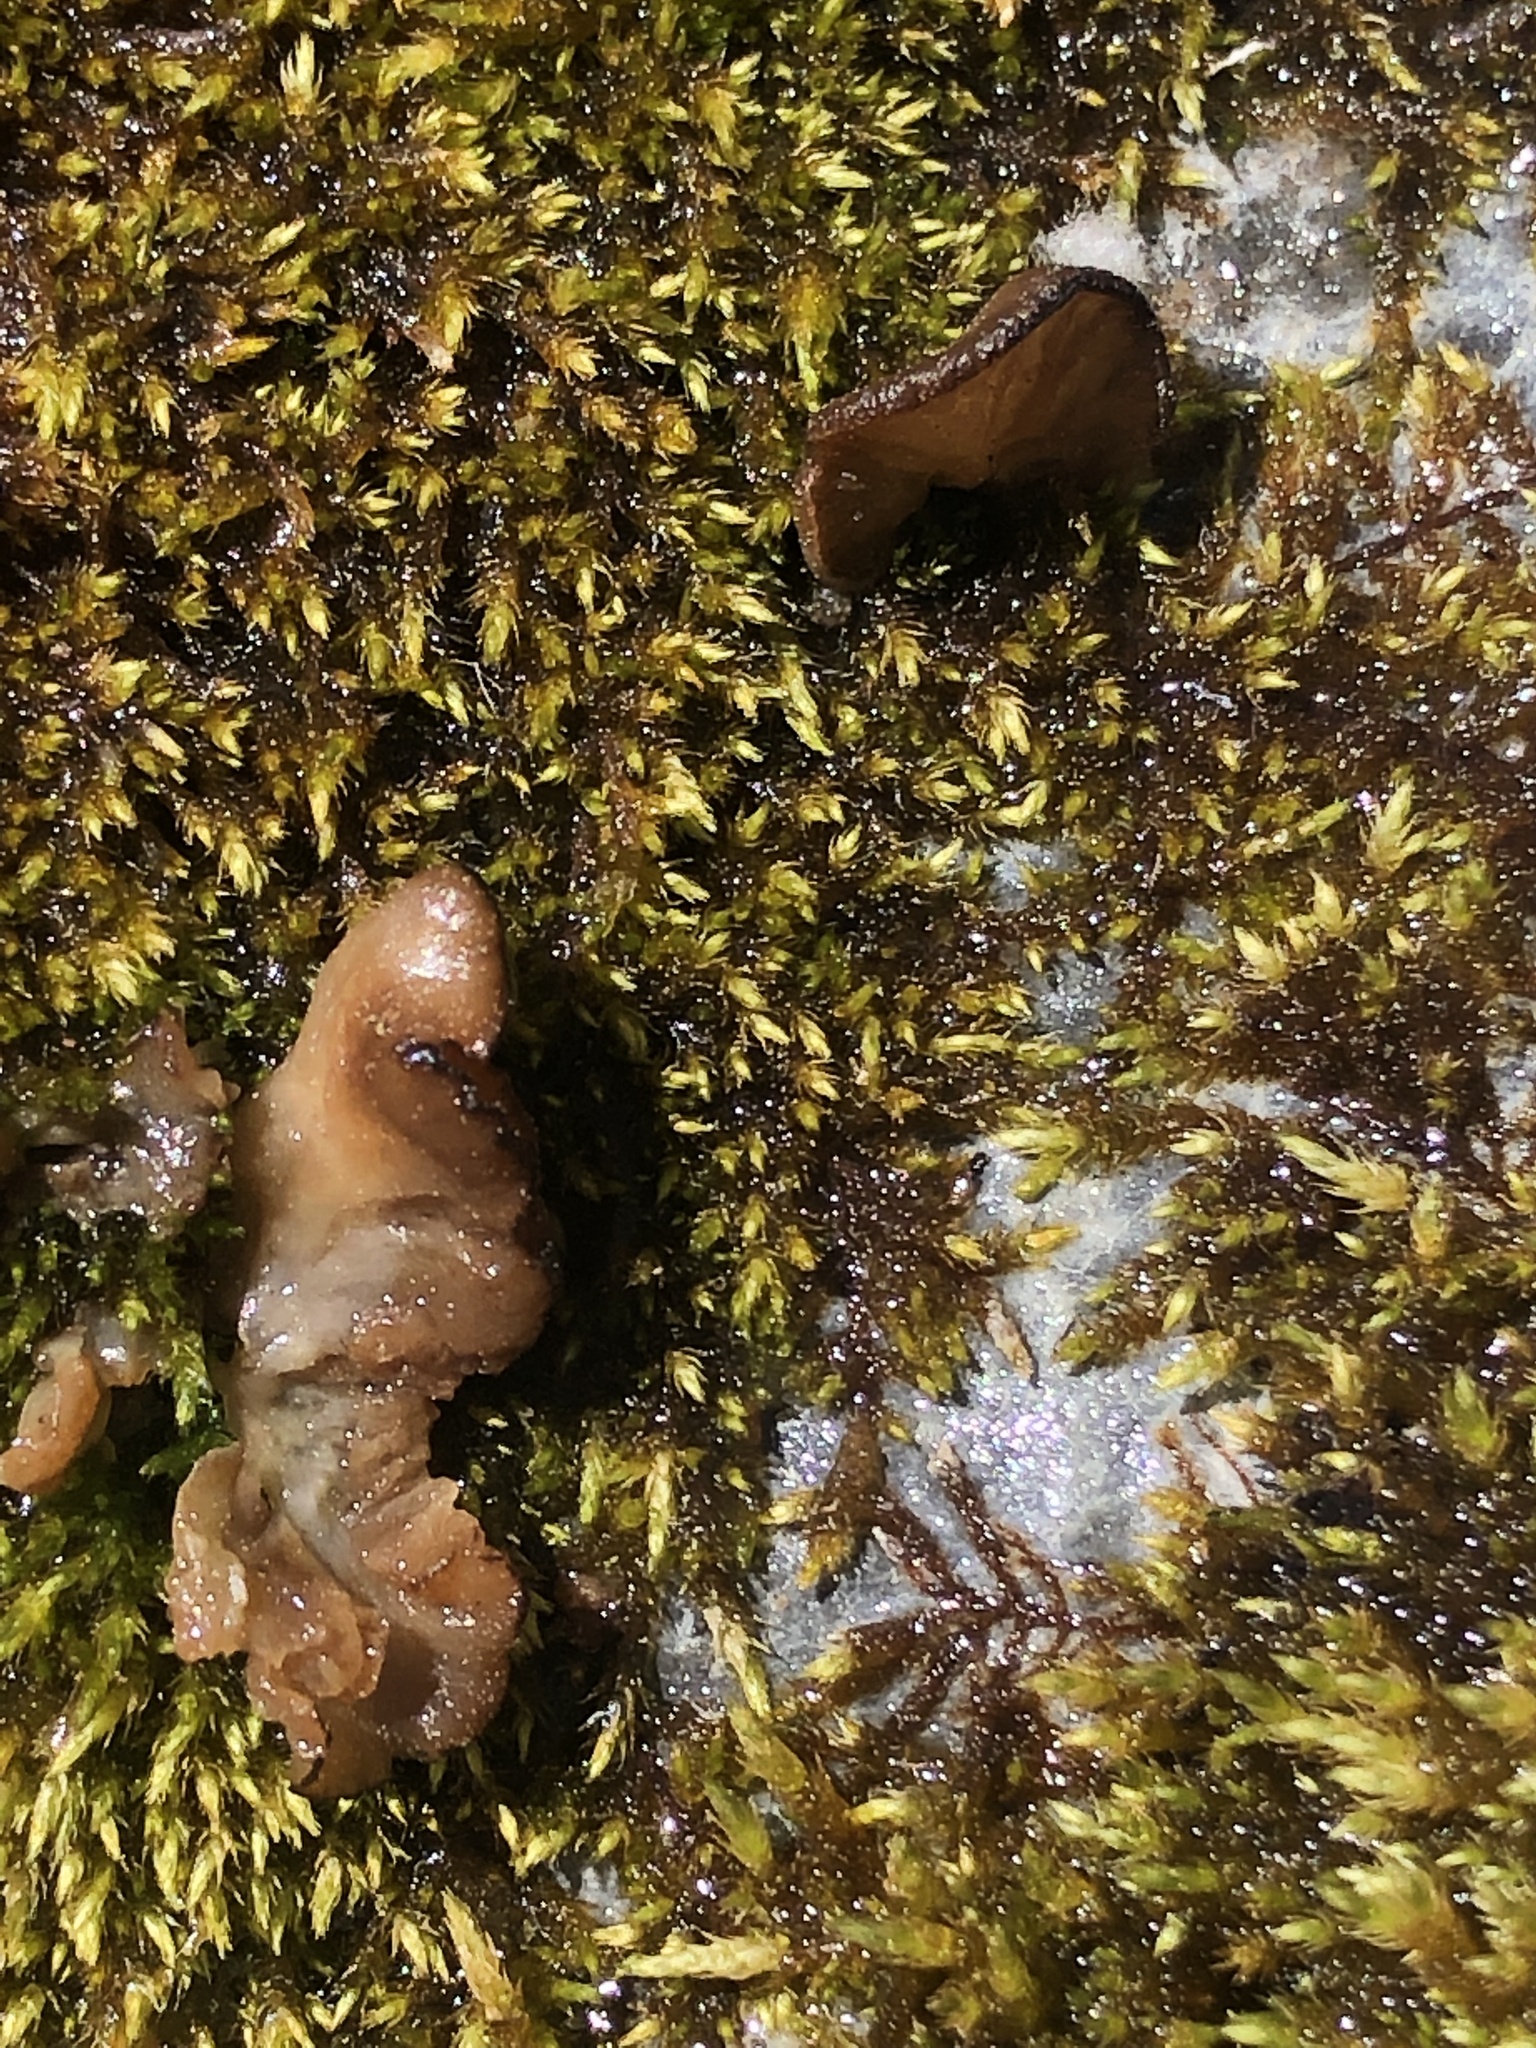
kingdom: Fungi
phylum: Basidiomycota
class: Agaricomycetes
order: Agaricales
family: Hygrophoraceae
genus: Arrhenia
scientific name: Arrhenia lobata
